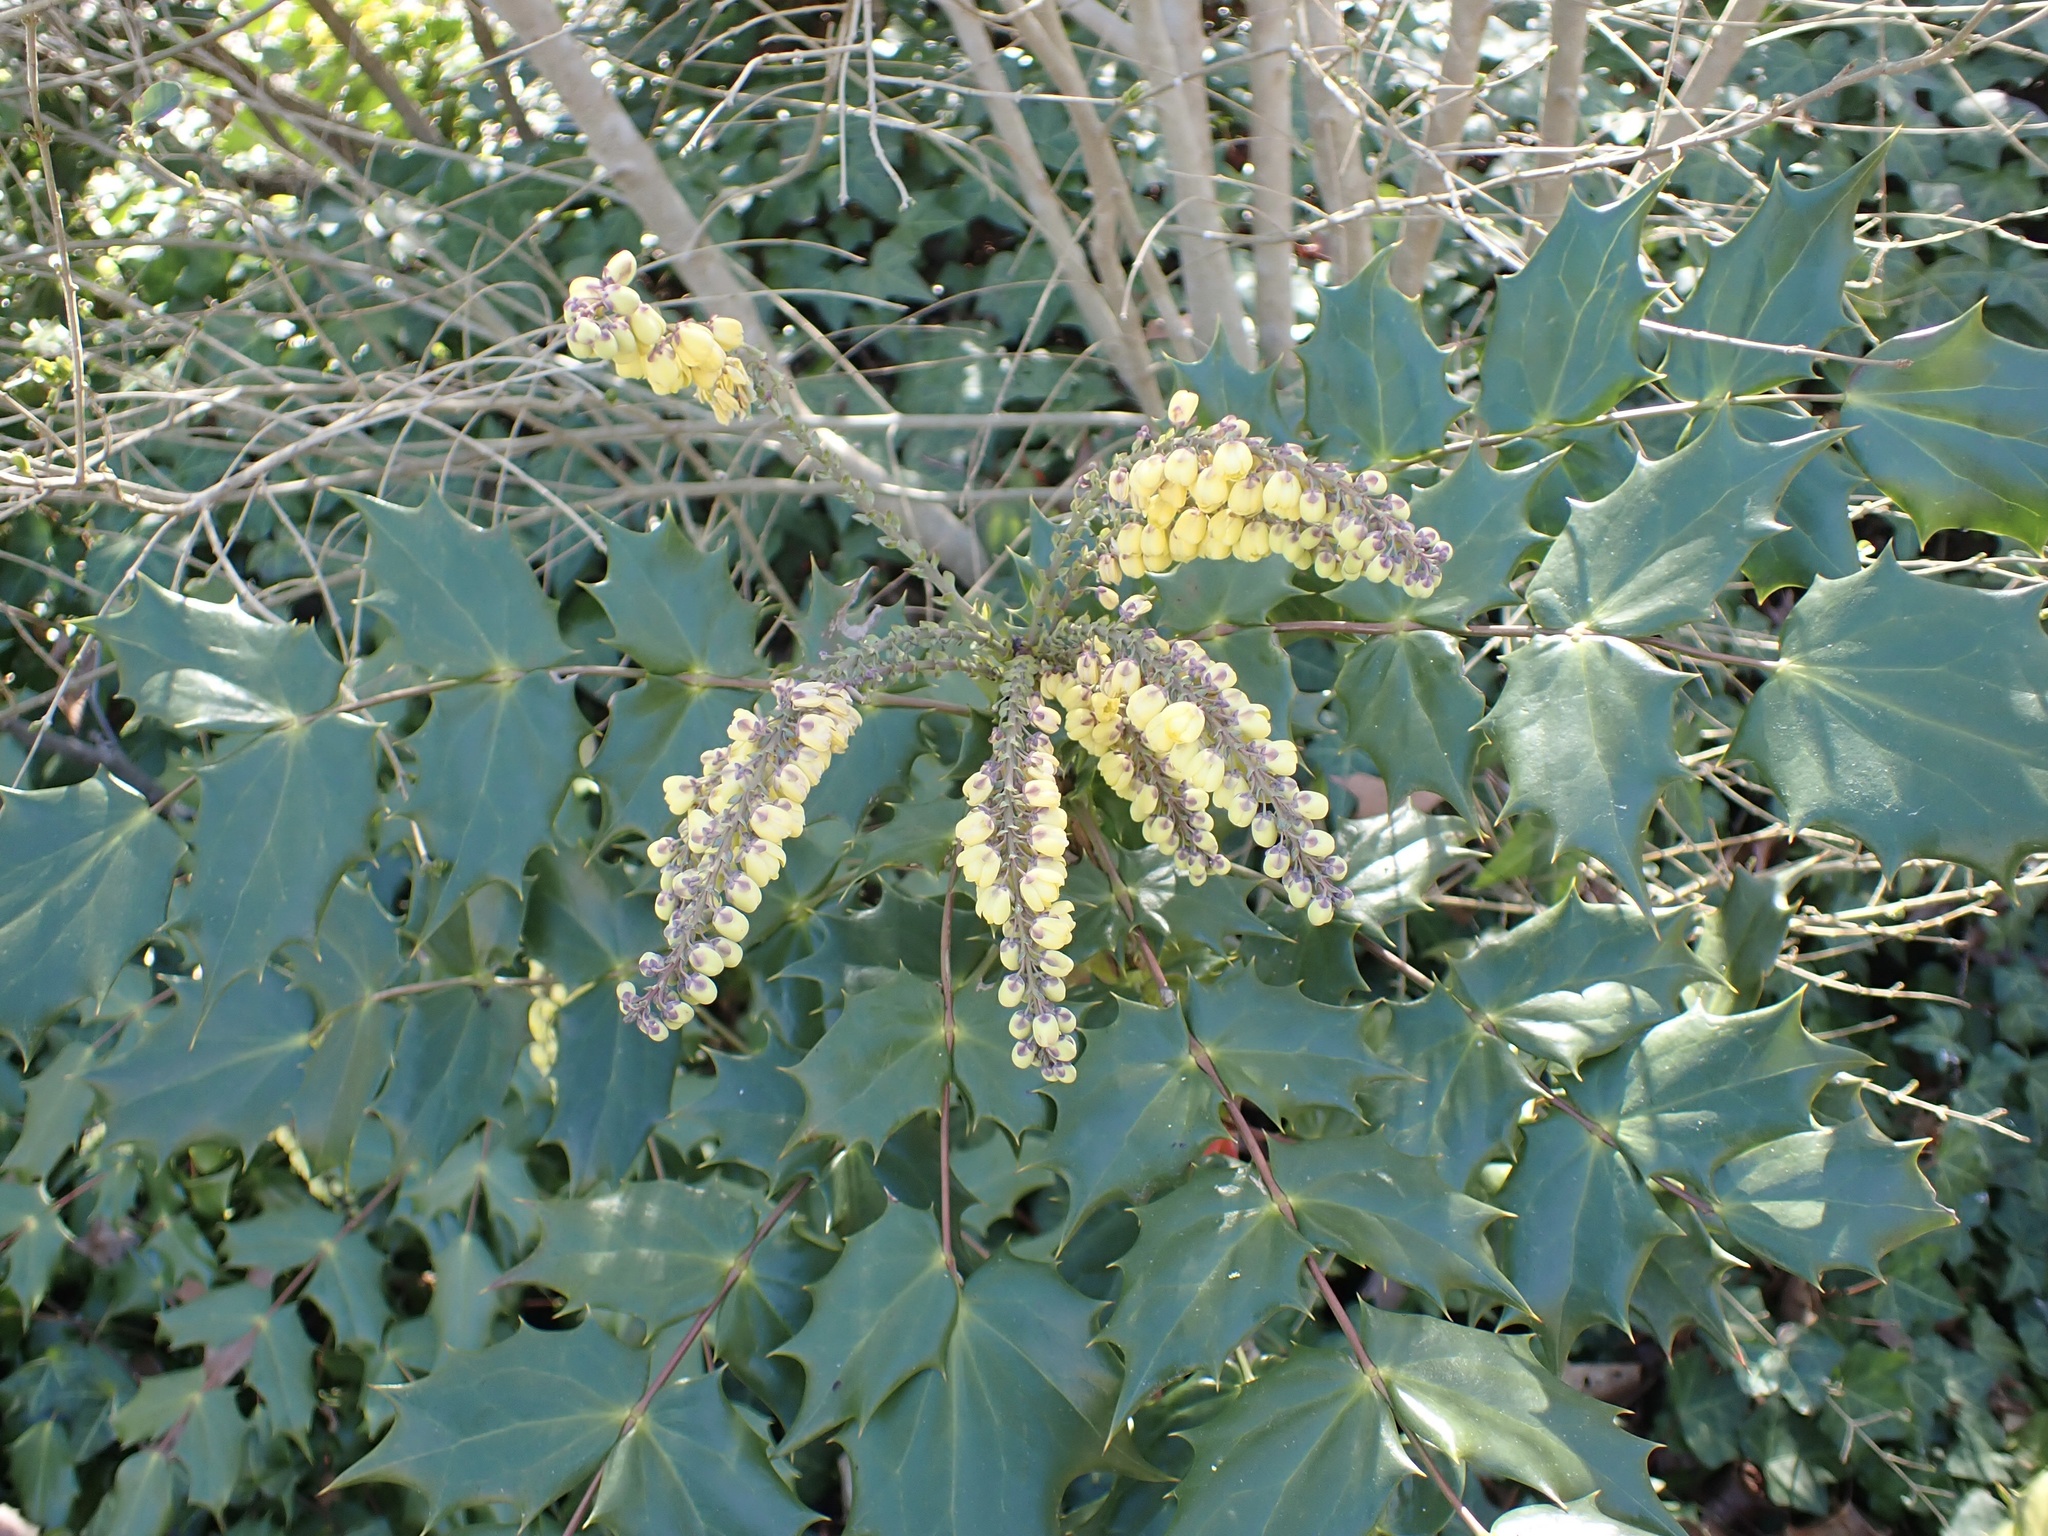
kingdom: Plantae
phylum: Tracheophyta
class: Magnoliopsida
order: Ranunculales
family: Berberidaceae
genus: Mahonia
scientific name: Mahonia bealei
